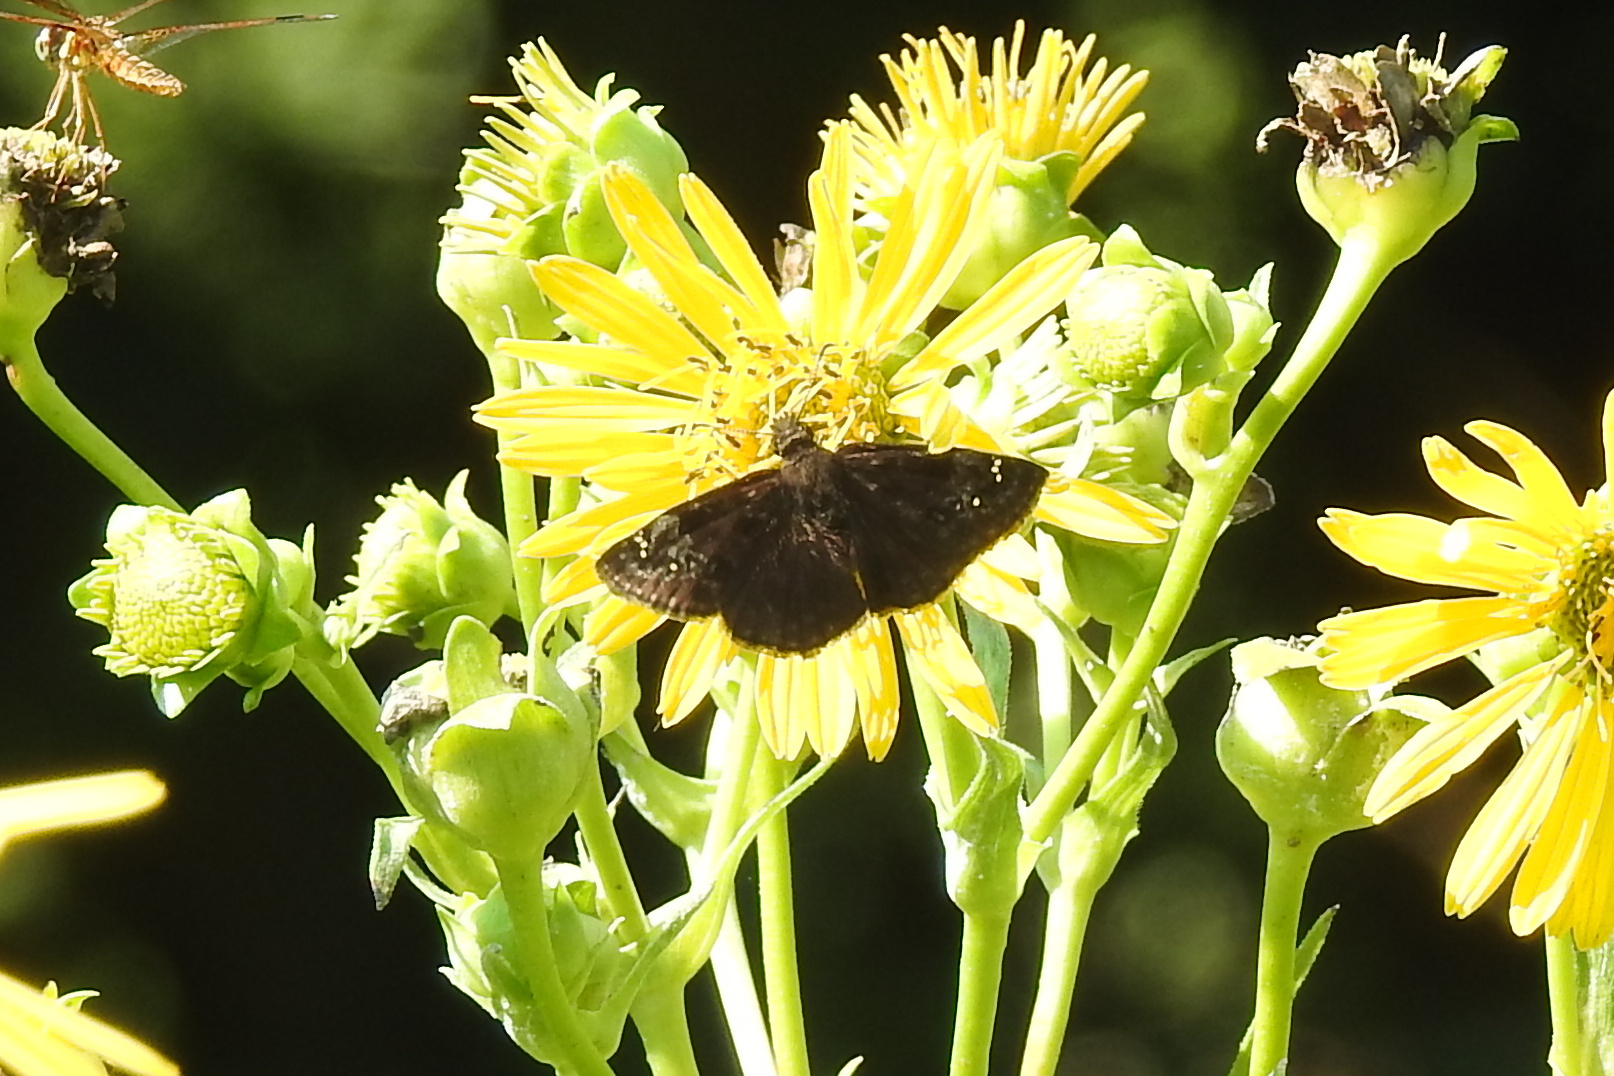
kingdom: Animalia
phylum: Arthropoda
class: Insecta
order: Lepidoptera
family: Hesperiidae
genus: Erynnis
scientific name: Erynnis baptisiae
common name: Wild indigo duskywing
